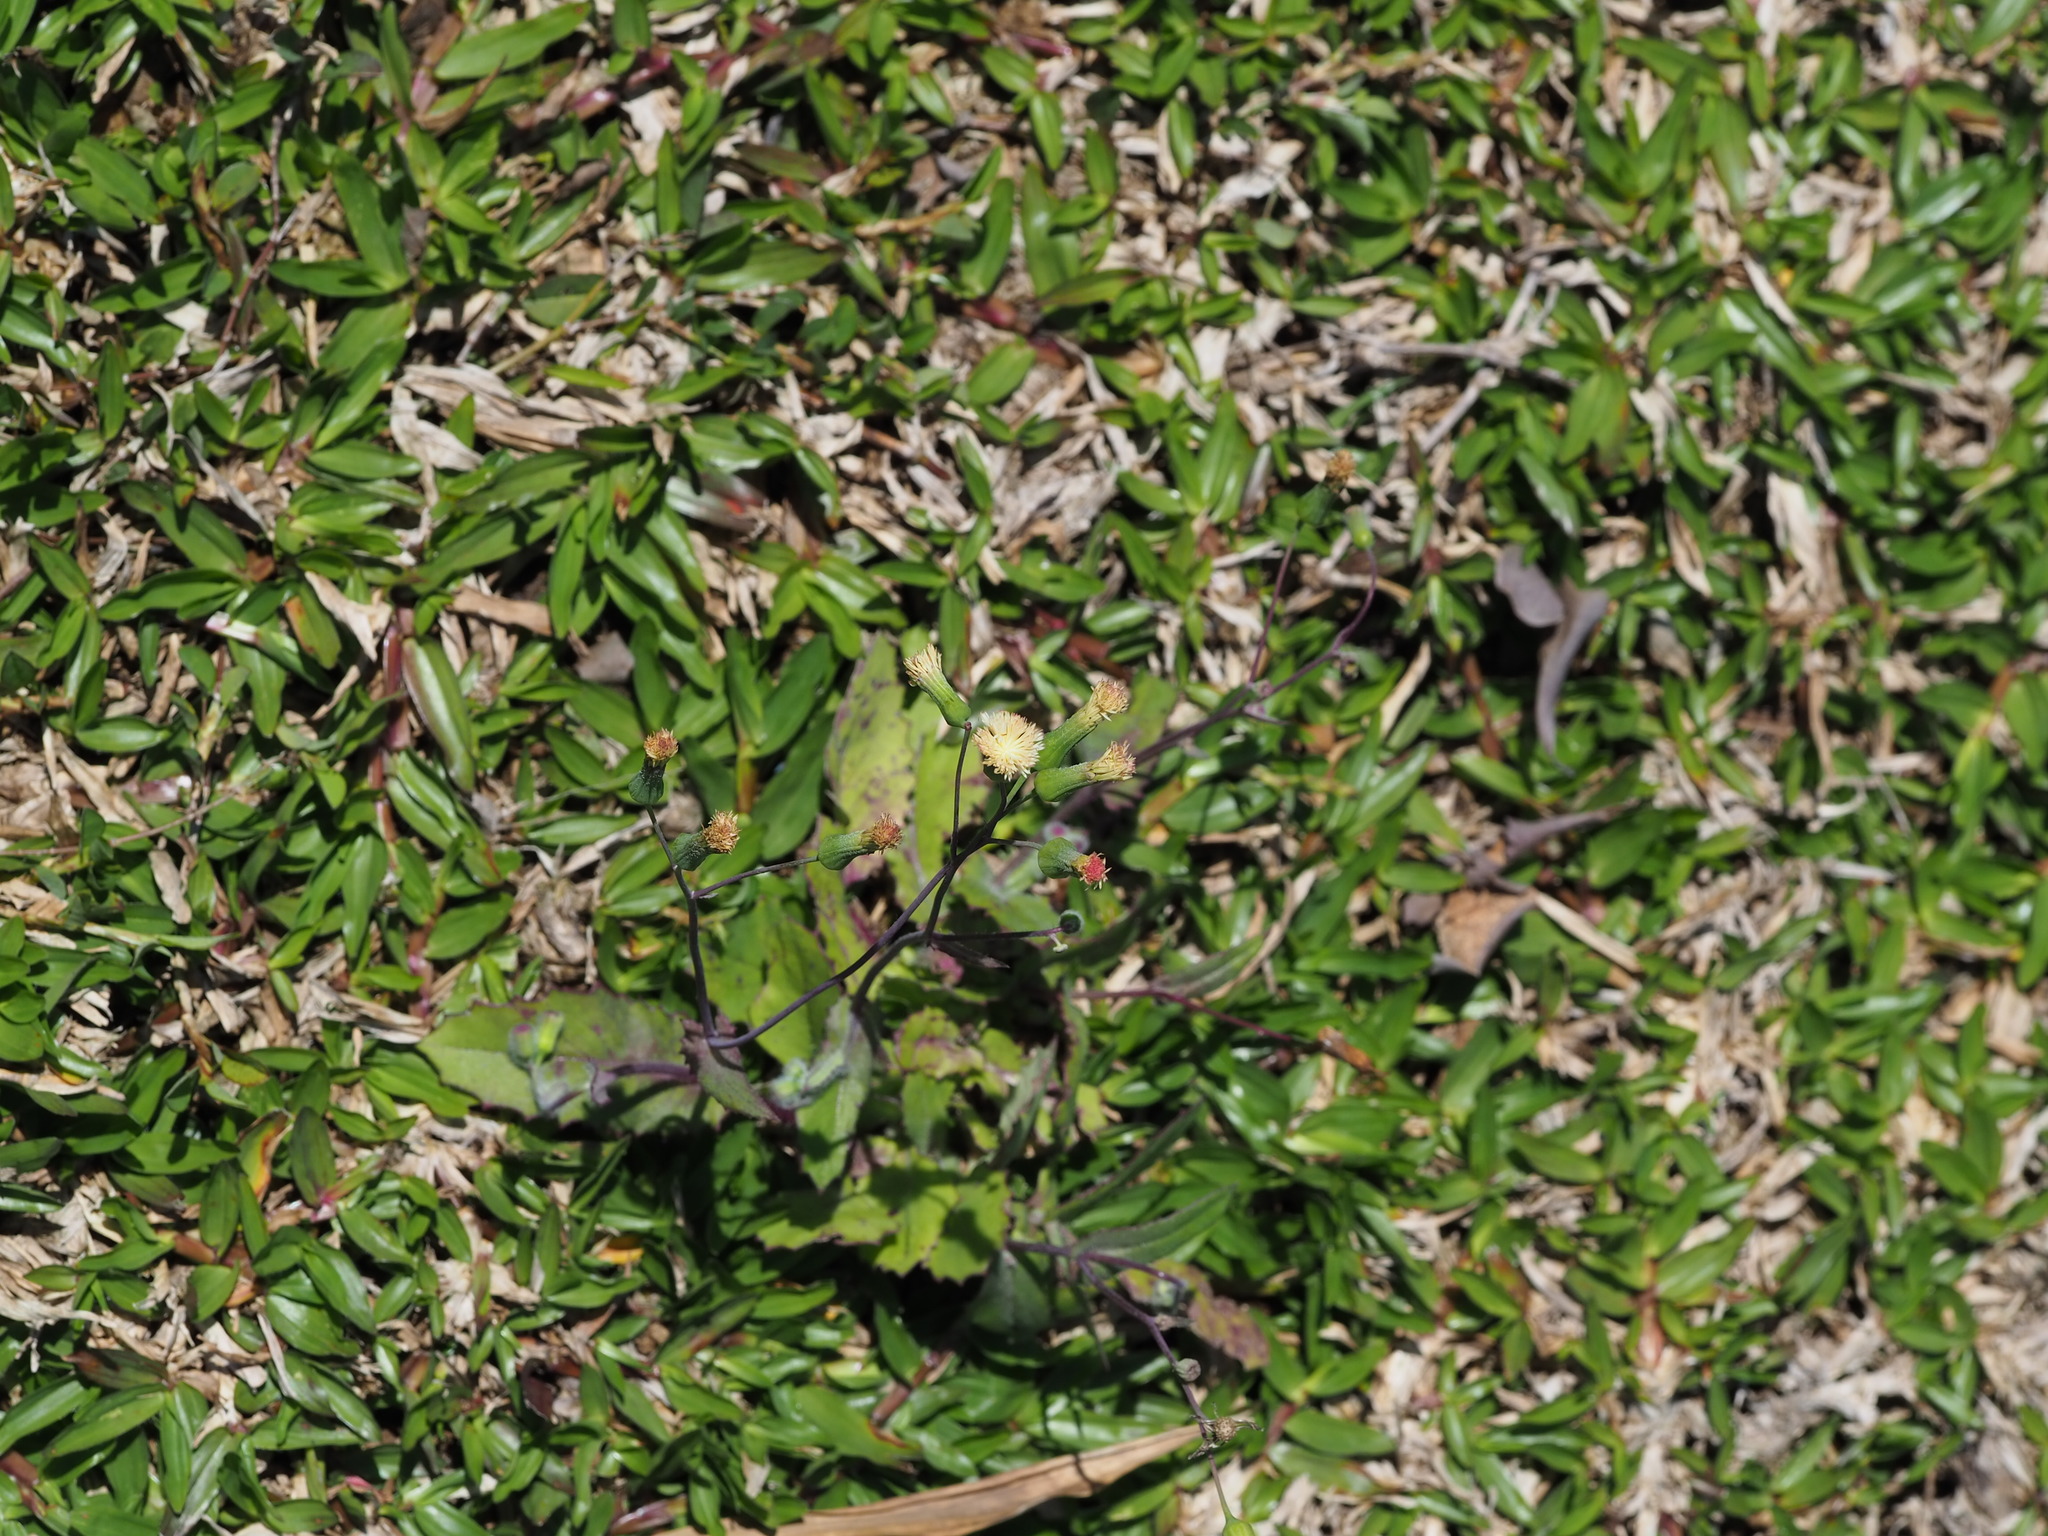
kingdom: Plantae
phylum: Tracheophyta
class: Magnoliopsida
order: Asterales
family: Asteraceae
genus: Emilia
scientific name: Emilia praetermissa
